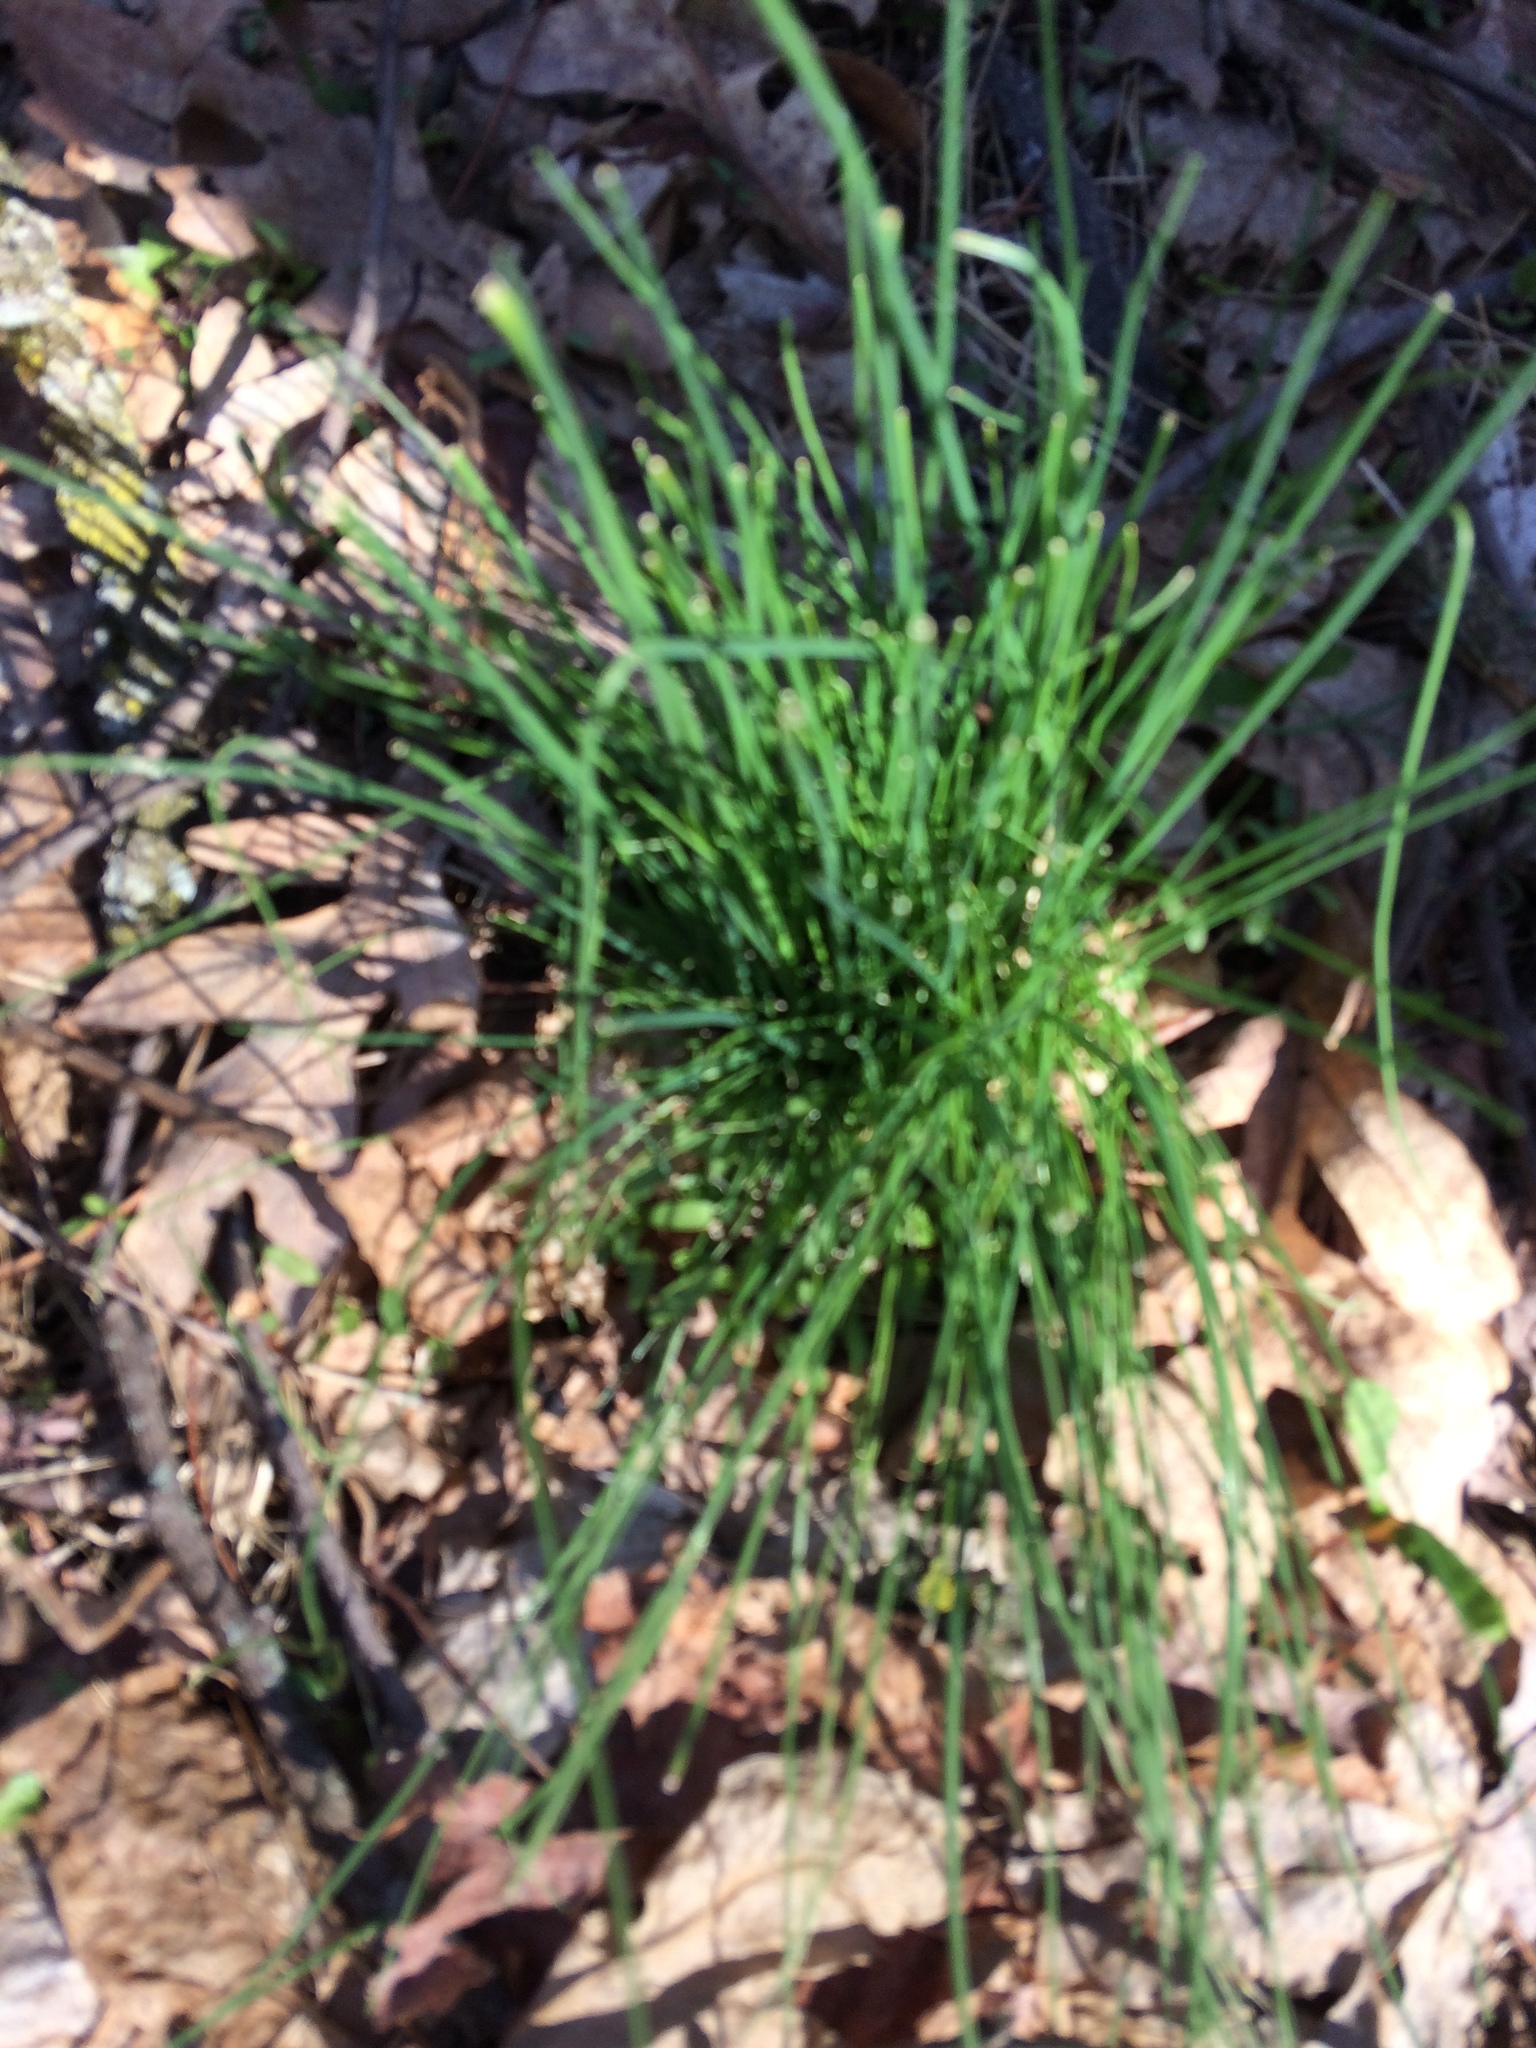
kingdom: Plantae
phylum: Tracheophyta
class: Liliopsida
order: Asparagales
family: Amaryllidaceae
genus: Allium
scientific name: Allium vineale
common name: Crow garlic
